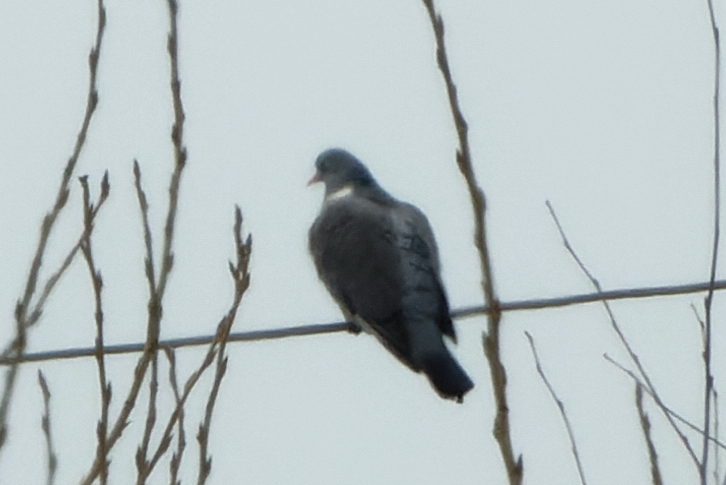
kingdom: Animalia
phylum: Chordata
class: Aves
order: Columbiformes
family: Columbidae
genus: Columba
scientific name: Columba palumbus
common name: Common wood pigeon
